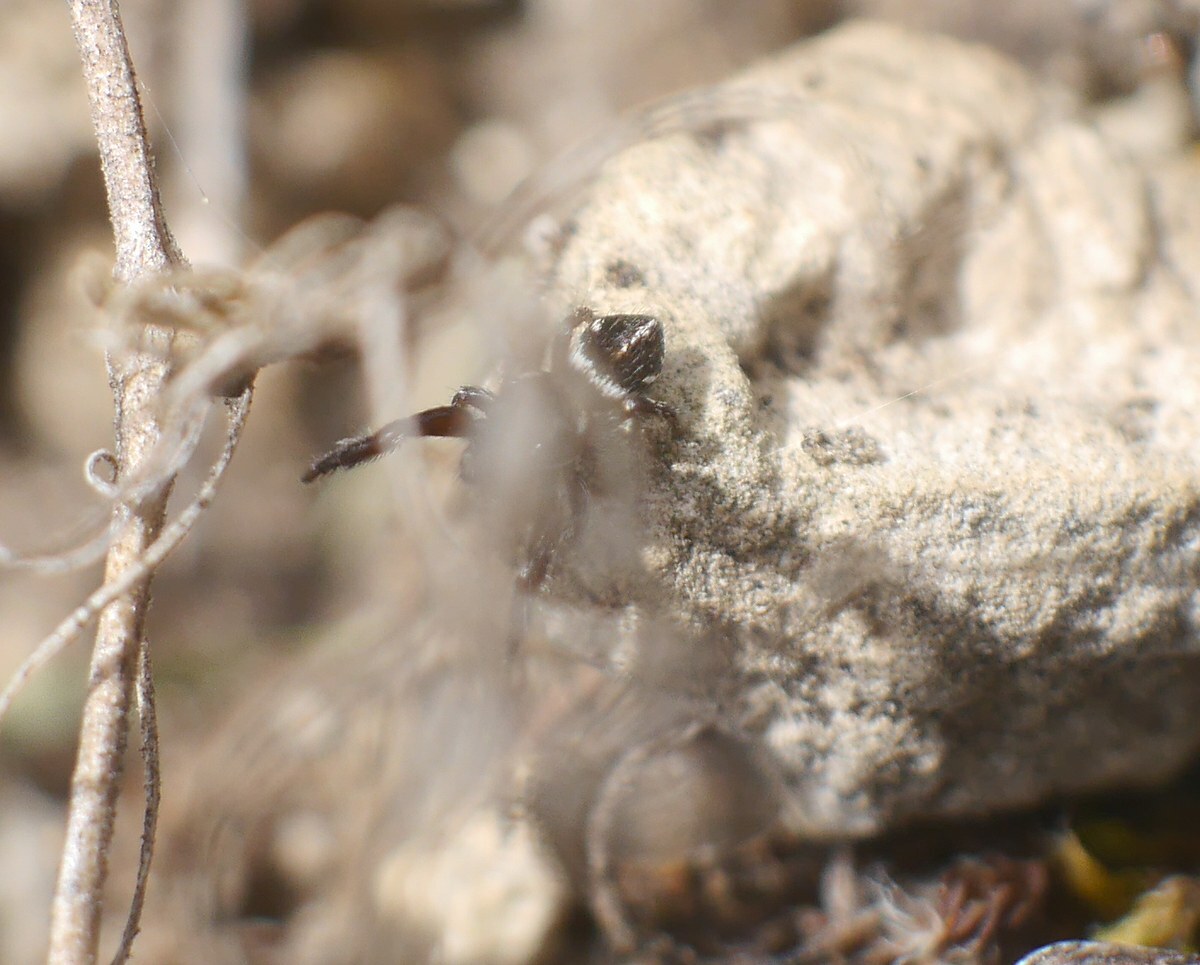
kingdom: Animalia
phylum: Arthropoda
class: Arachnida
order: Araneae
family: Salticidae
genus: Pellenes
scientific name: Pellenes nigrociliatus
